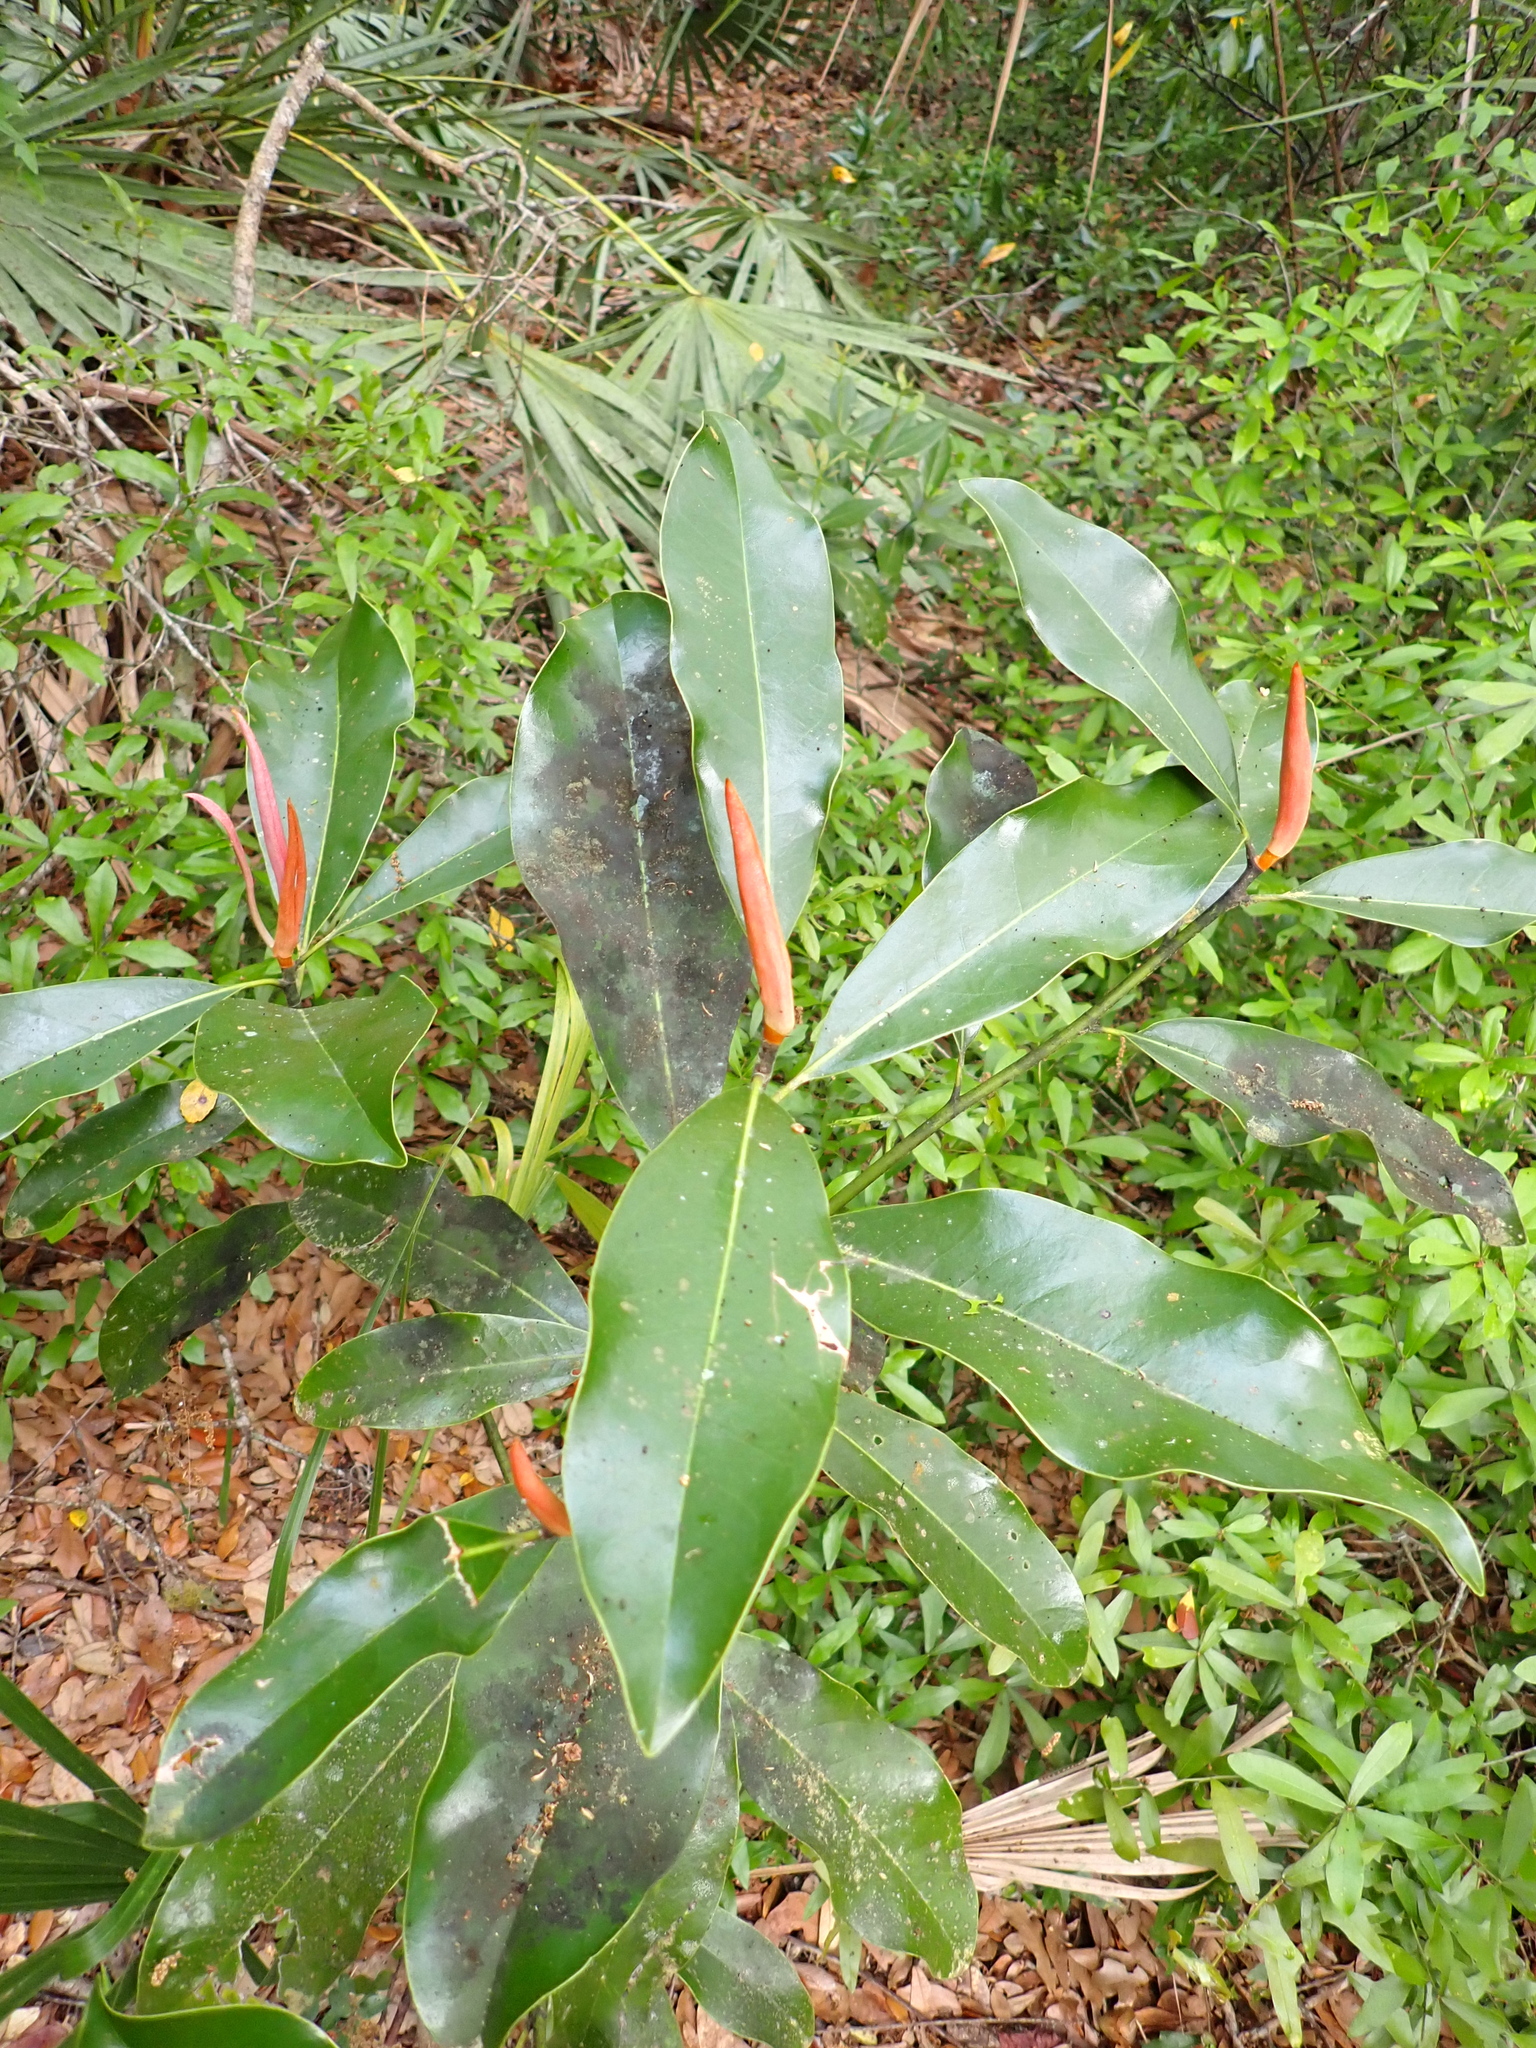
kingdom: Plantae
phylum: Tracheophyta
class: Magnoliopsida
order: Magnoliales
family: Magnoliaceae
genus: Magnolia
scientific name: Magnolia grandiflora
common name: Southern magnolia
